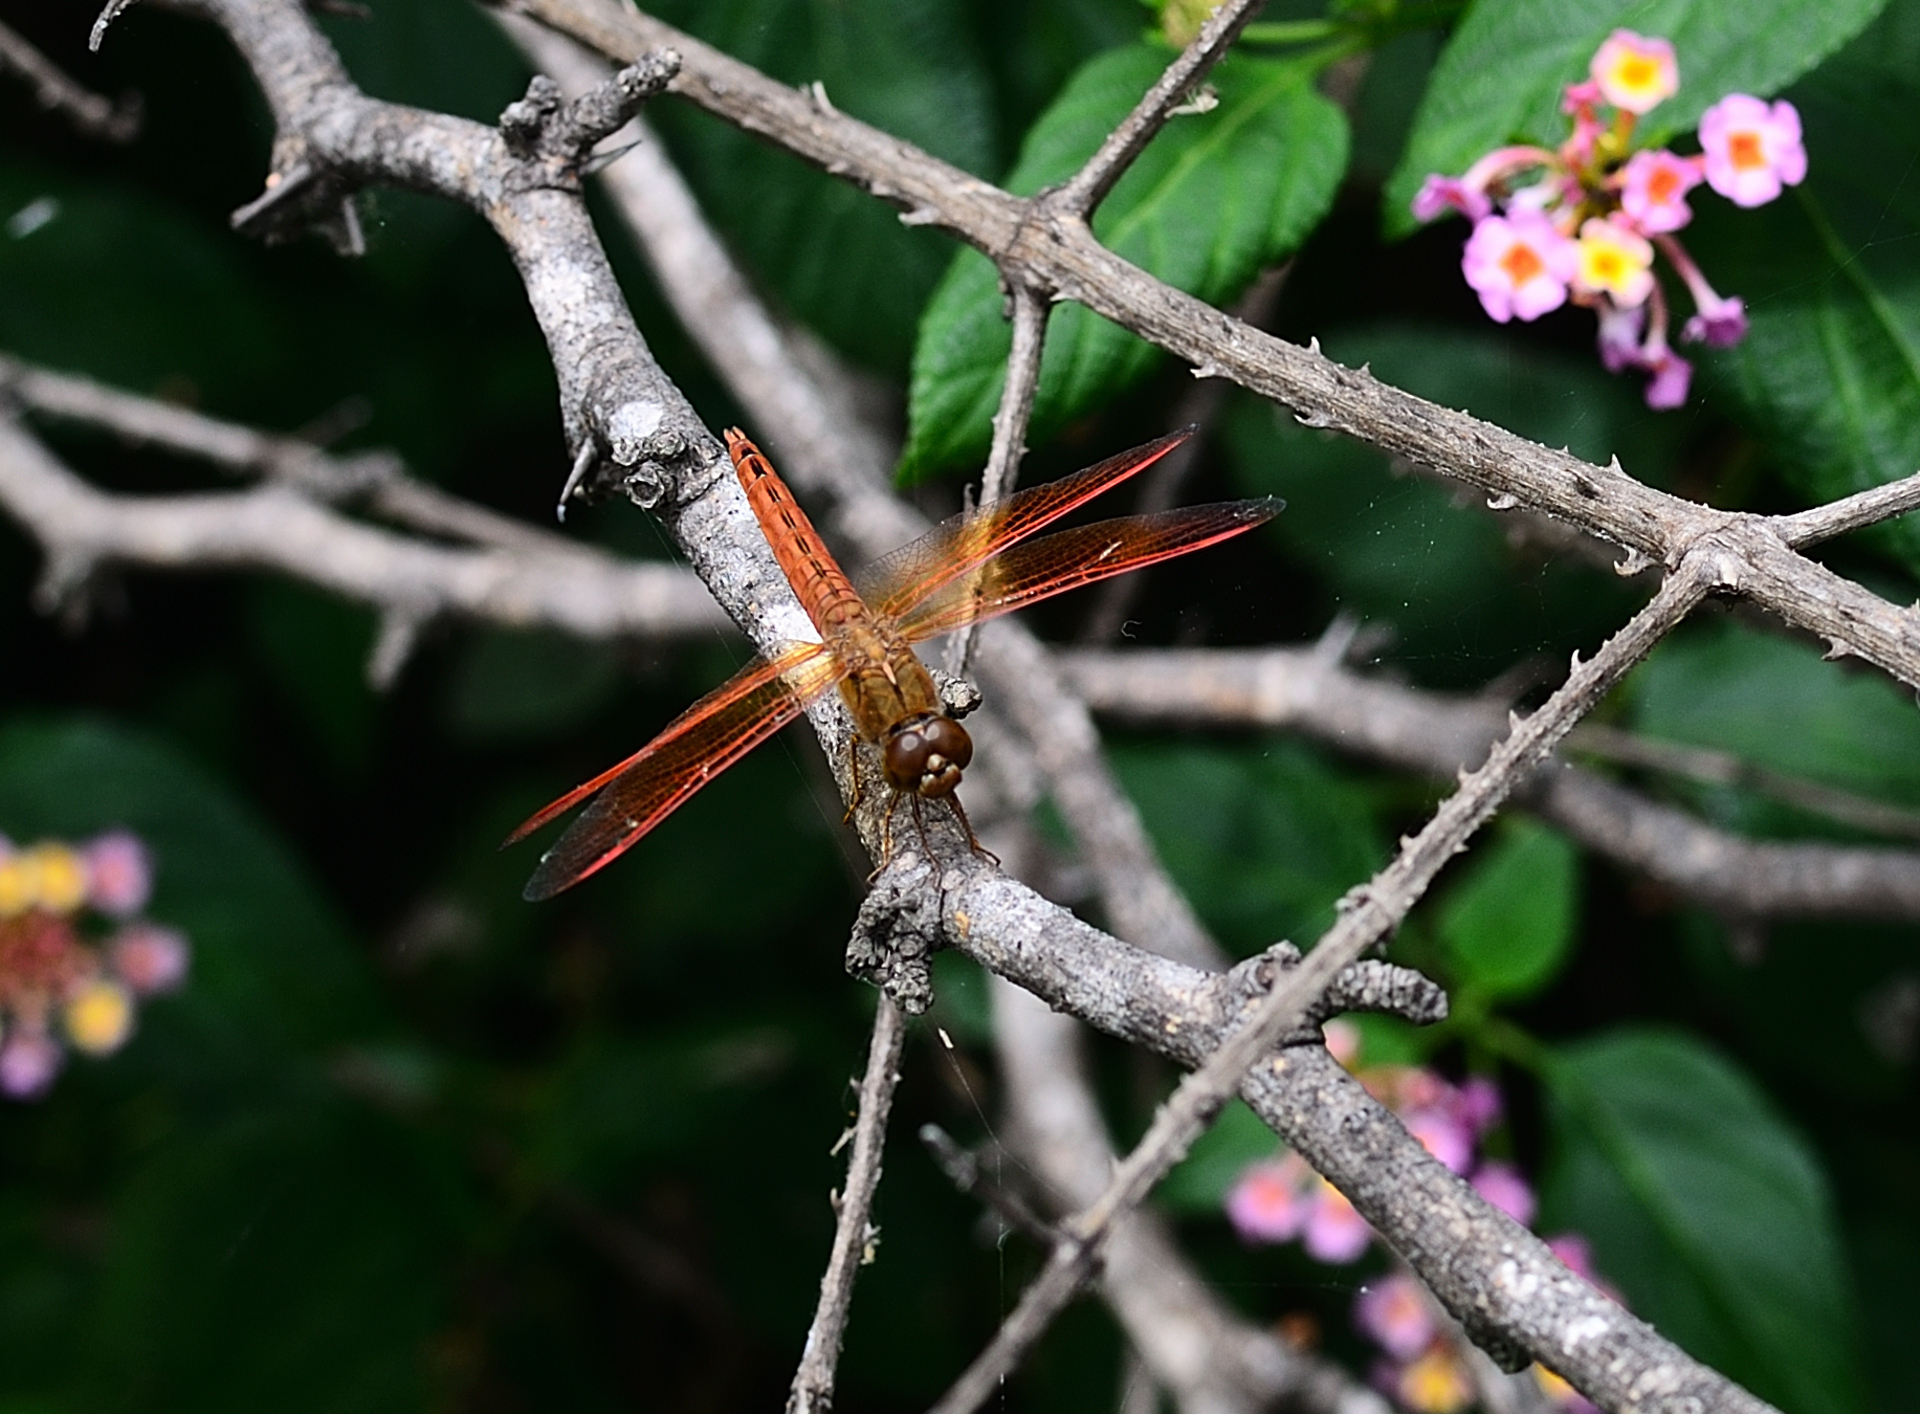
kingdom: Animalia
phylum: Arthropoda
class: Insecta
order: Odonata
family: Libellulidae
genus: Brachythemis
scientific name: Brachythemis contaminata
